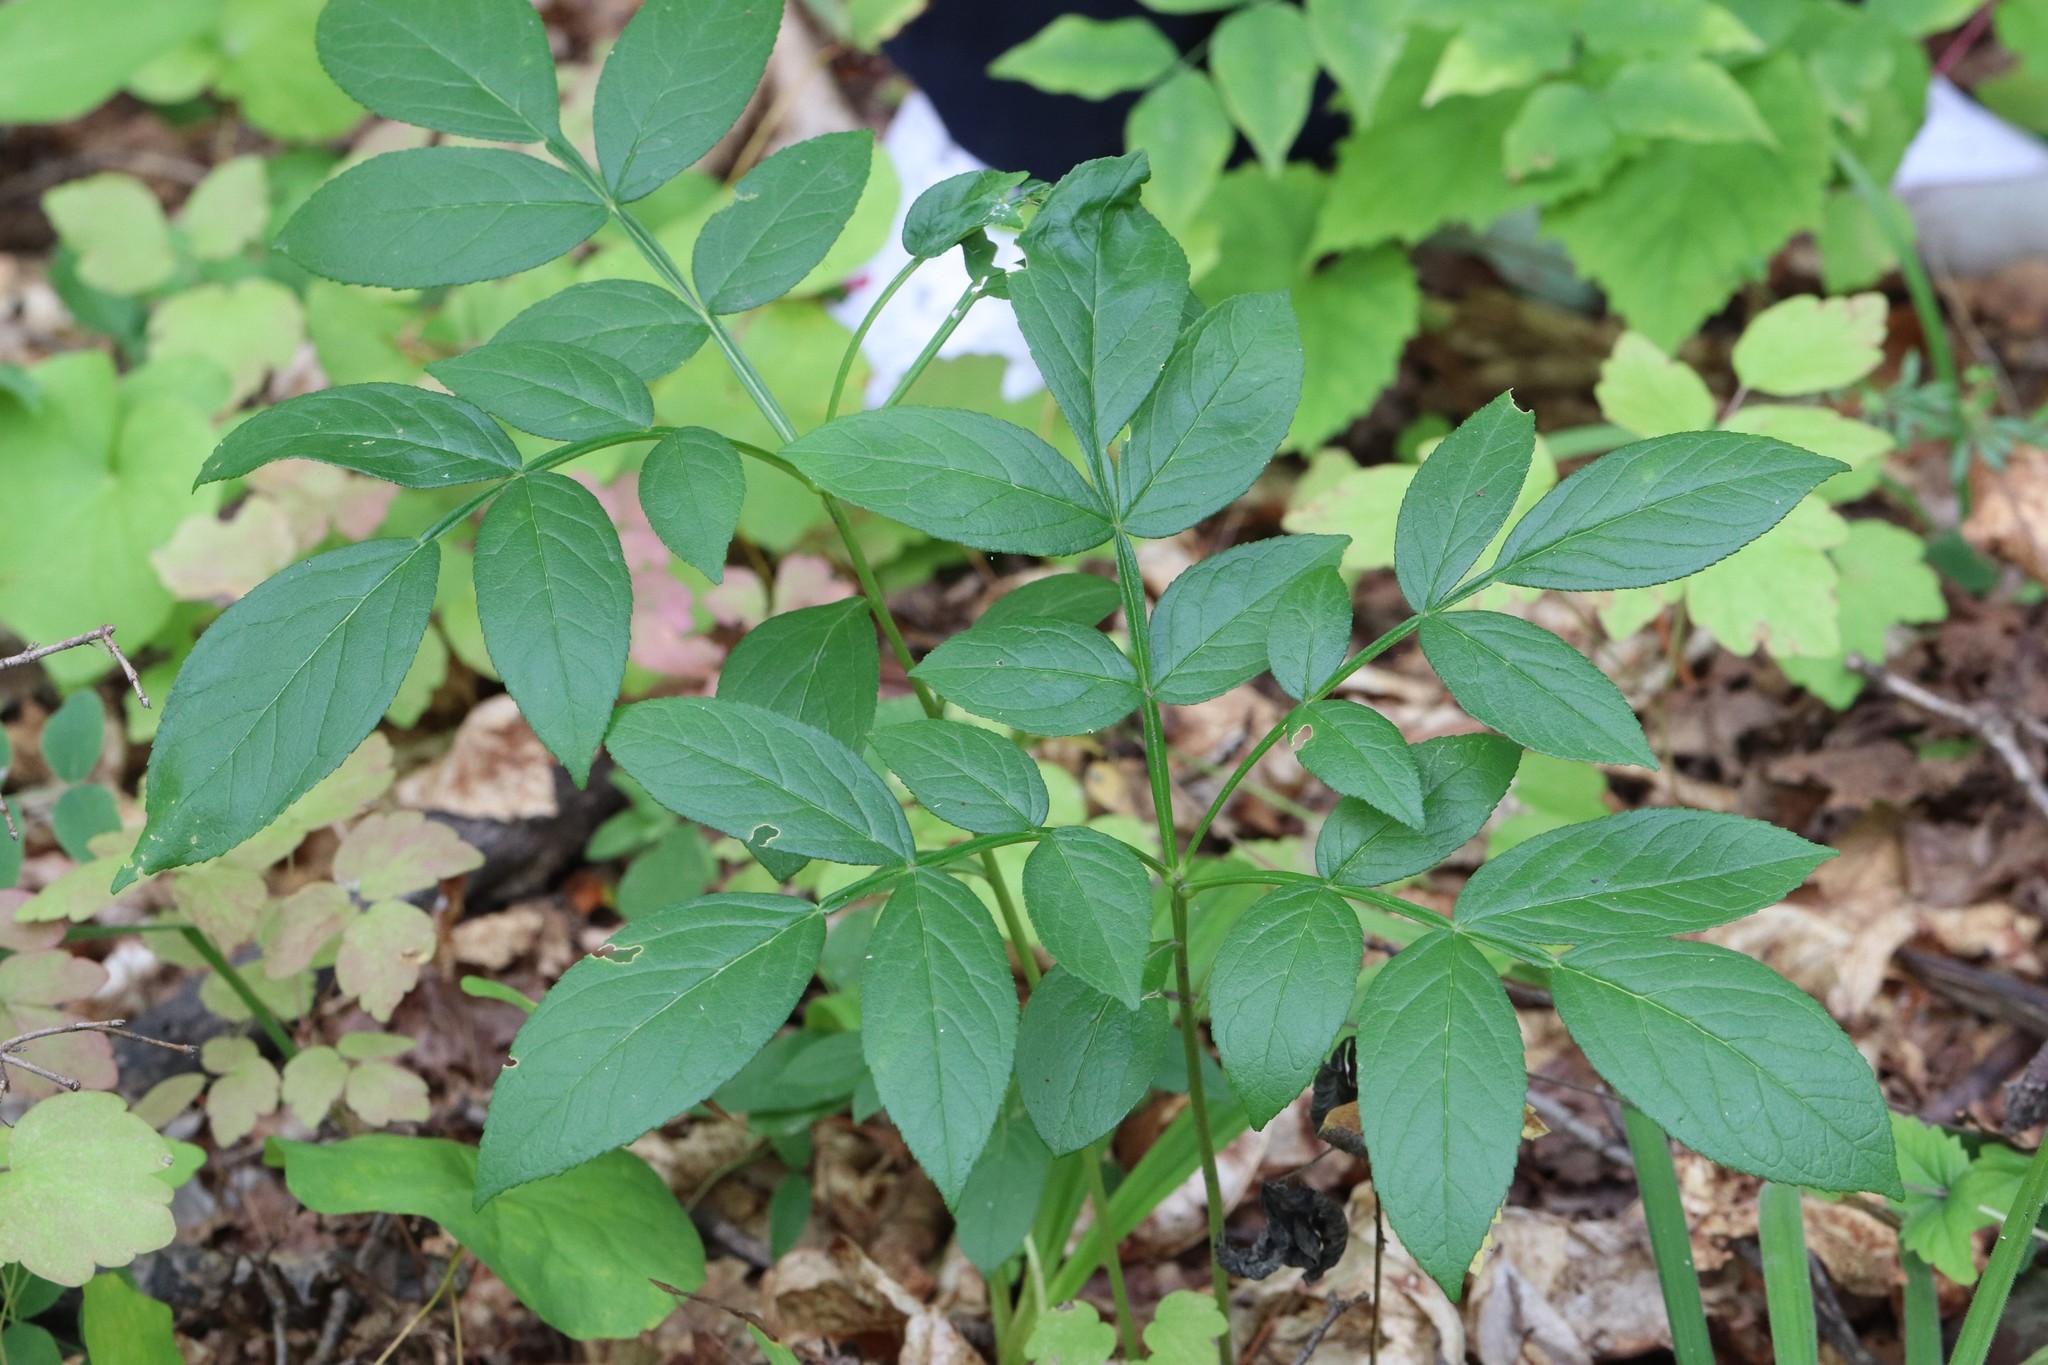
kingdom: Plantae
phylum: Tracheophyta
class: Magnoliopsida
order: Sapindales
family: Rutaceae
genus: Dictamnus
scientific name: Dictamnus dasycarpus
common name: Dense-fruit dittany
